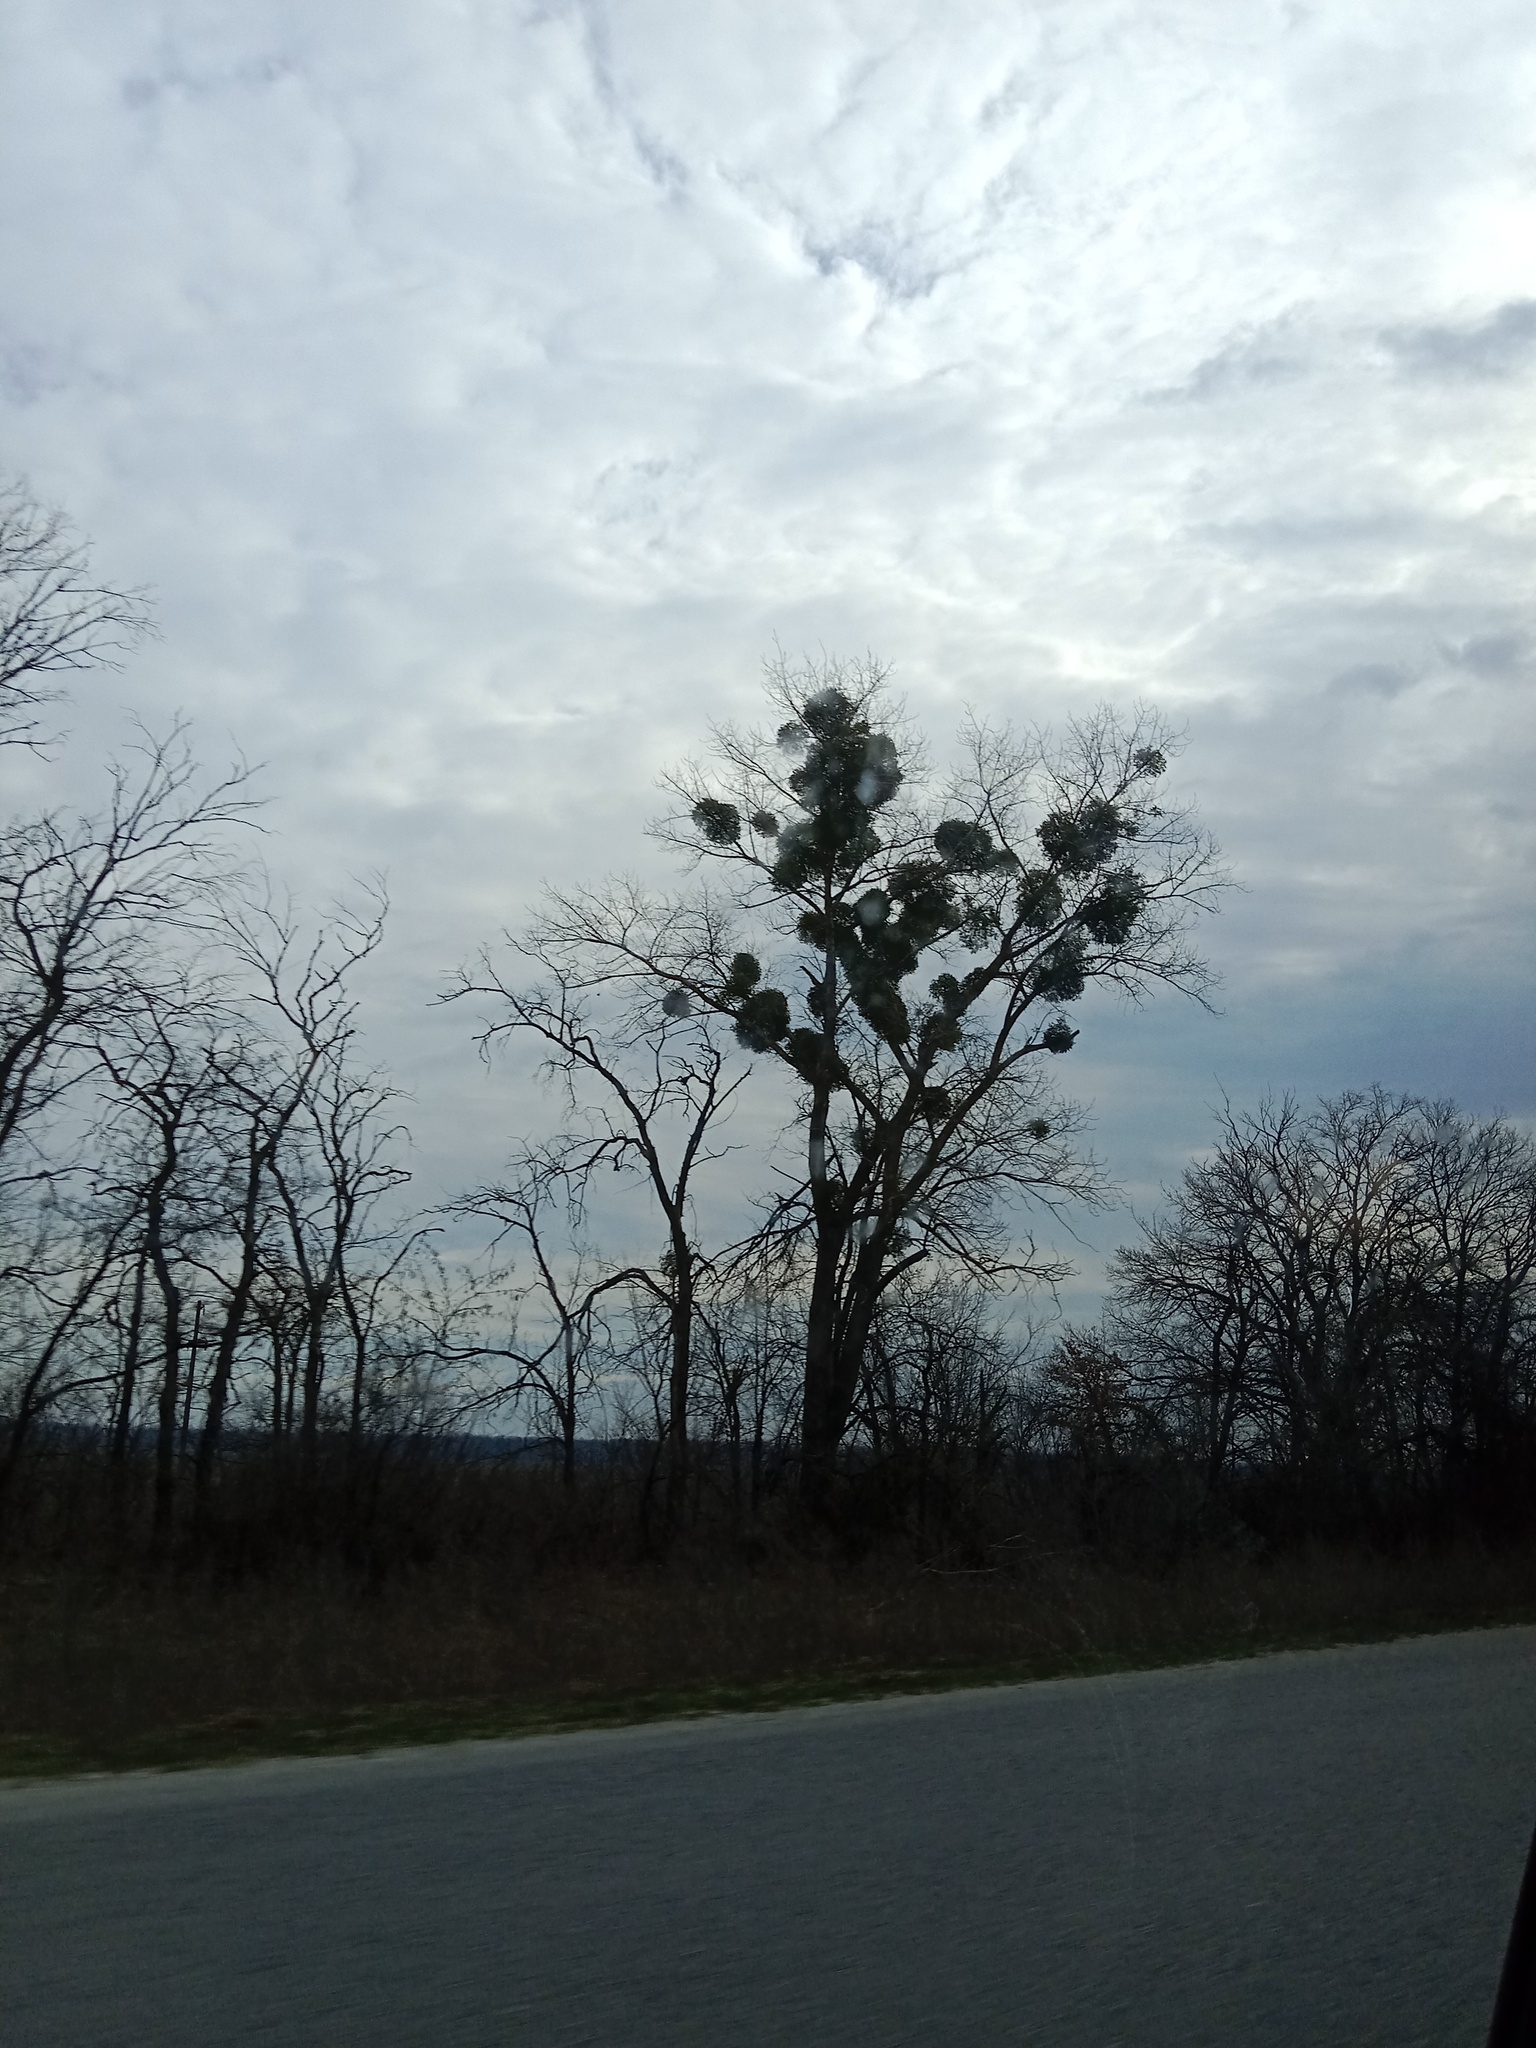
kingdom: Plantae
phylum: Tracheophyta
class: Magnoliopsida
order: Santalales
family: Viscaceae
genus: Viscum
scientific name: Viscum album
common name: Mistletoe
